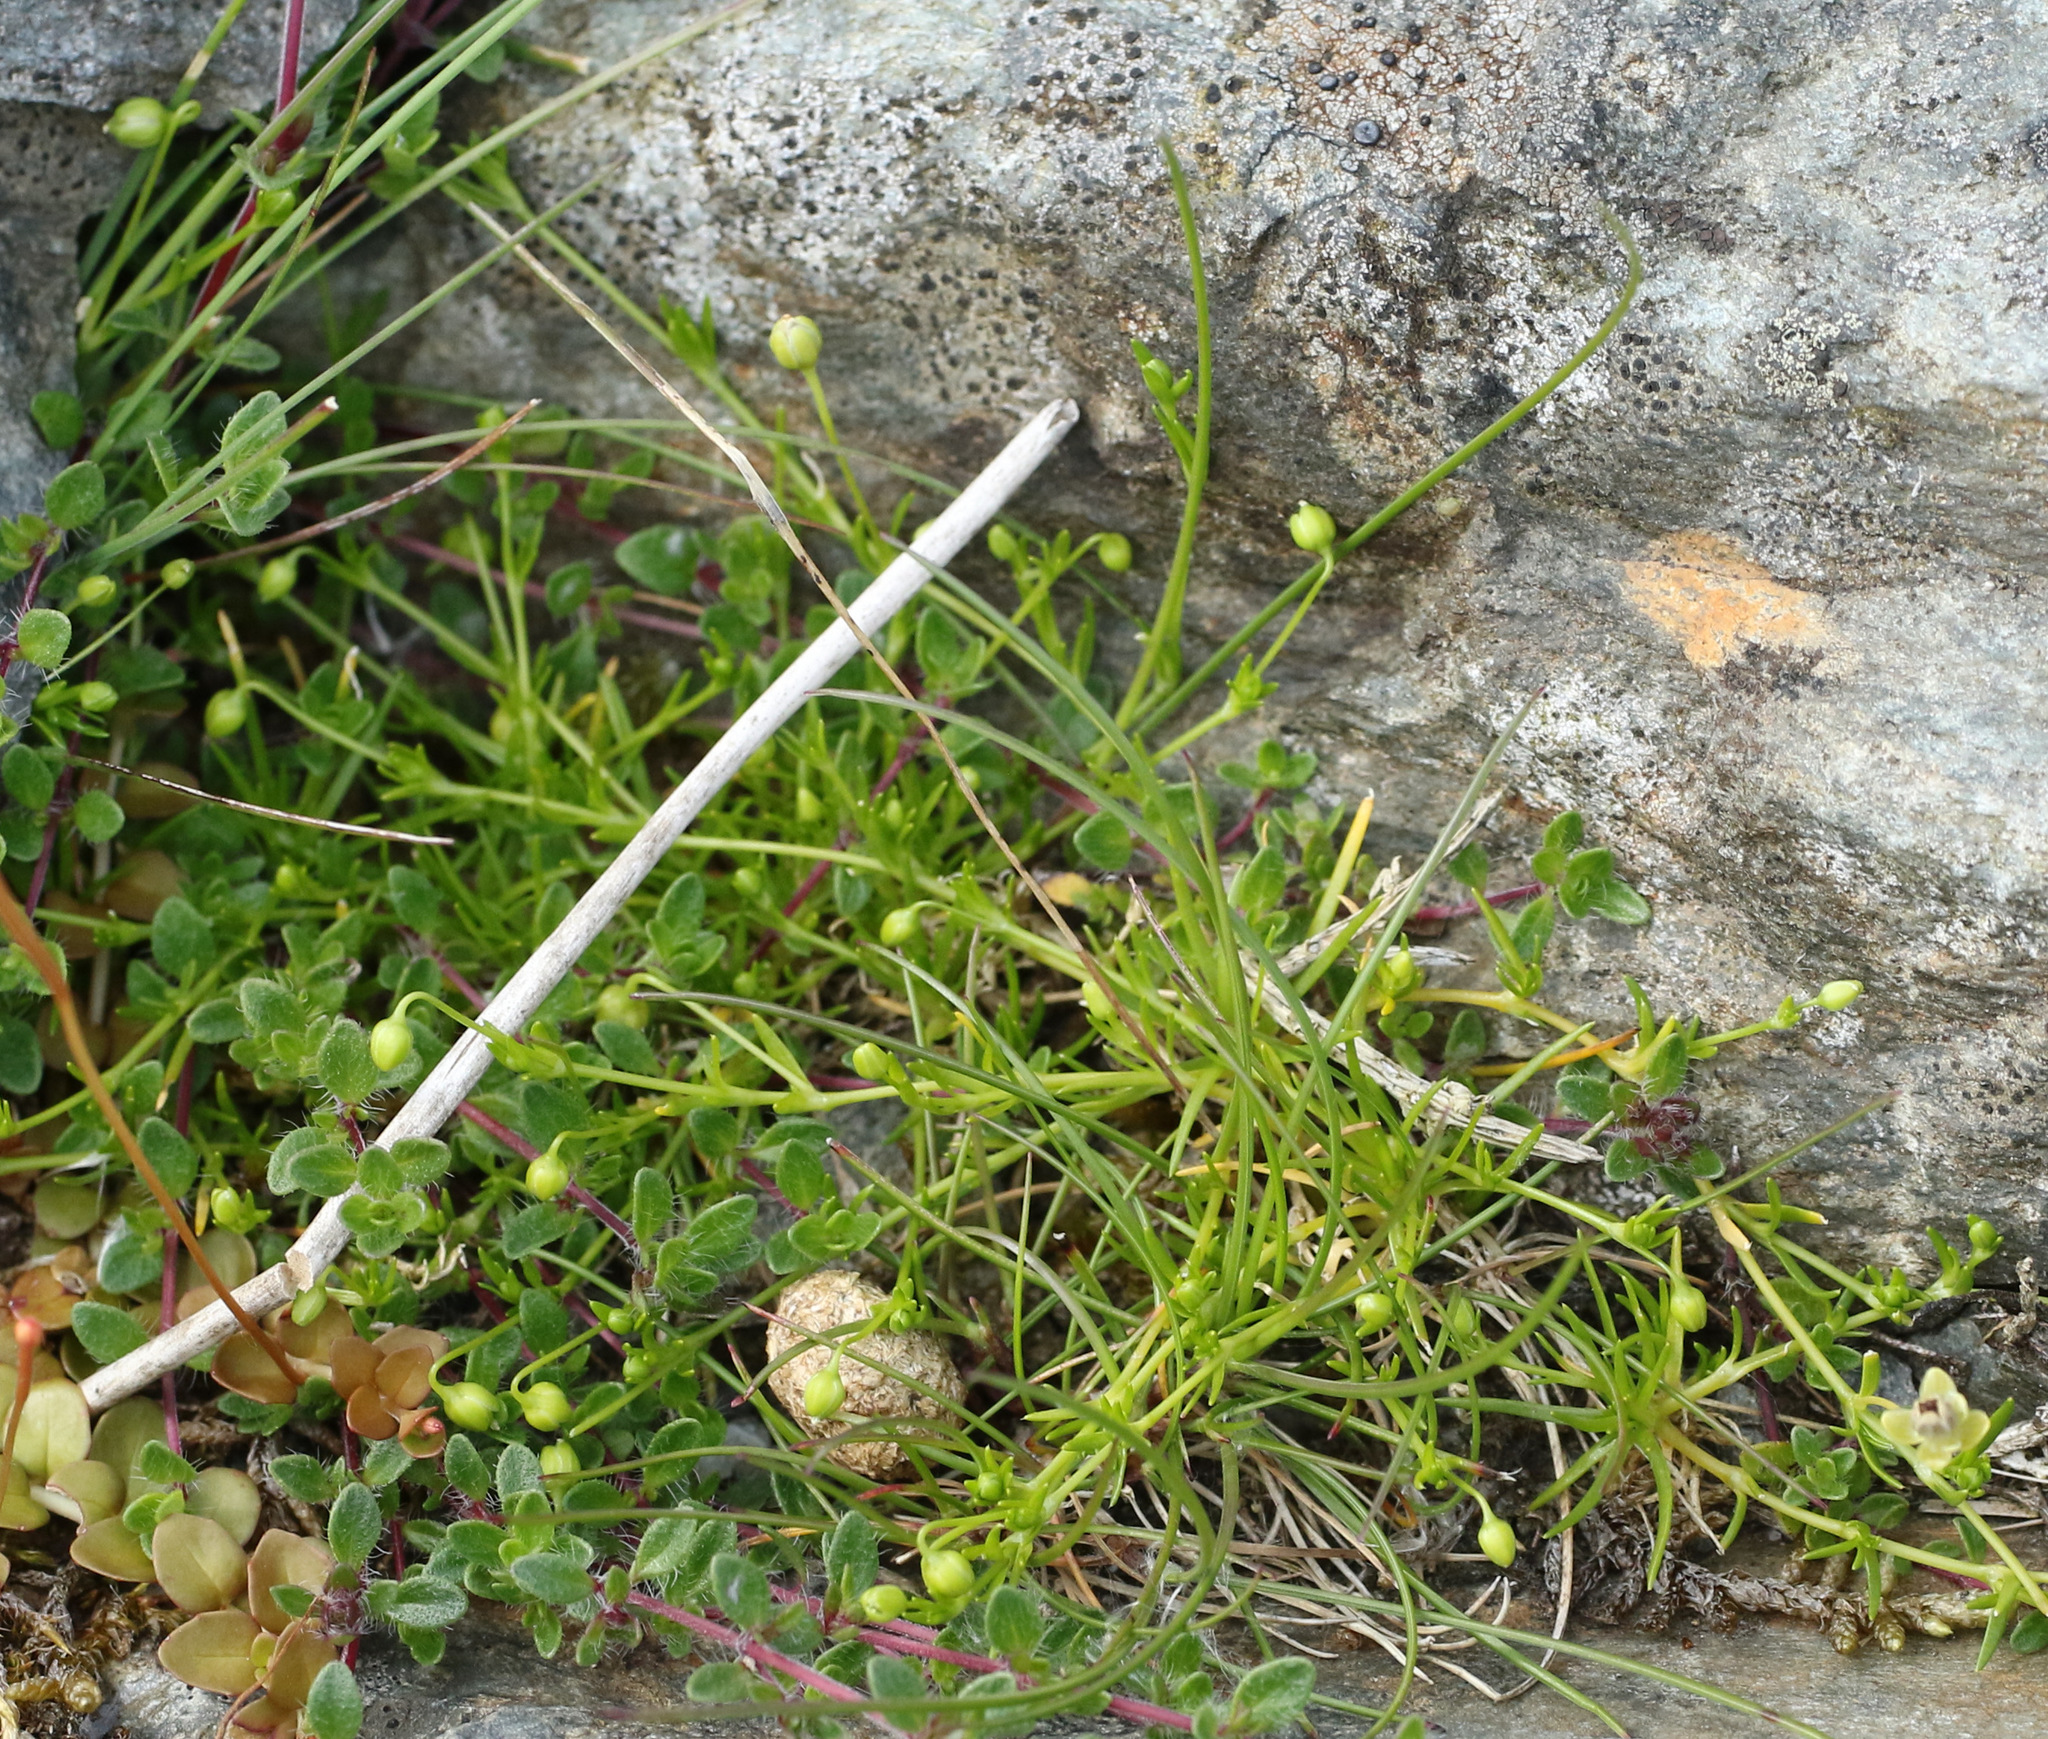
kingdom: Plantae
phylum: Tracheophyta
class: Magnoliopsida
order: Caryophyllales
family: Caryophyllaceae
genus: Sagina
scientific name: Sagina procumbens
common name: Procumbent pearlwort
